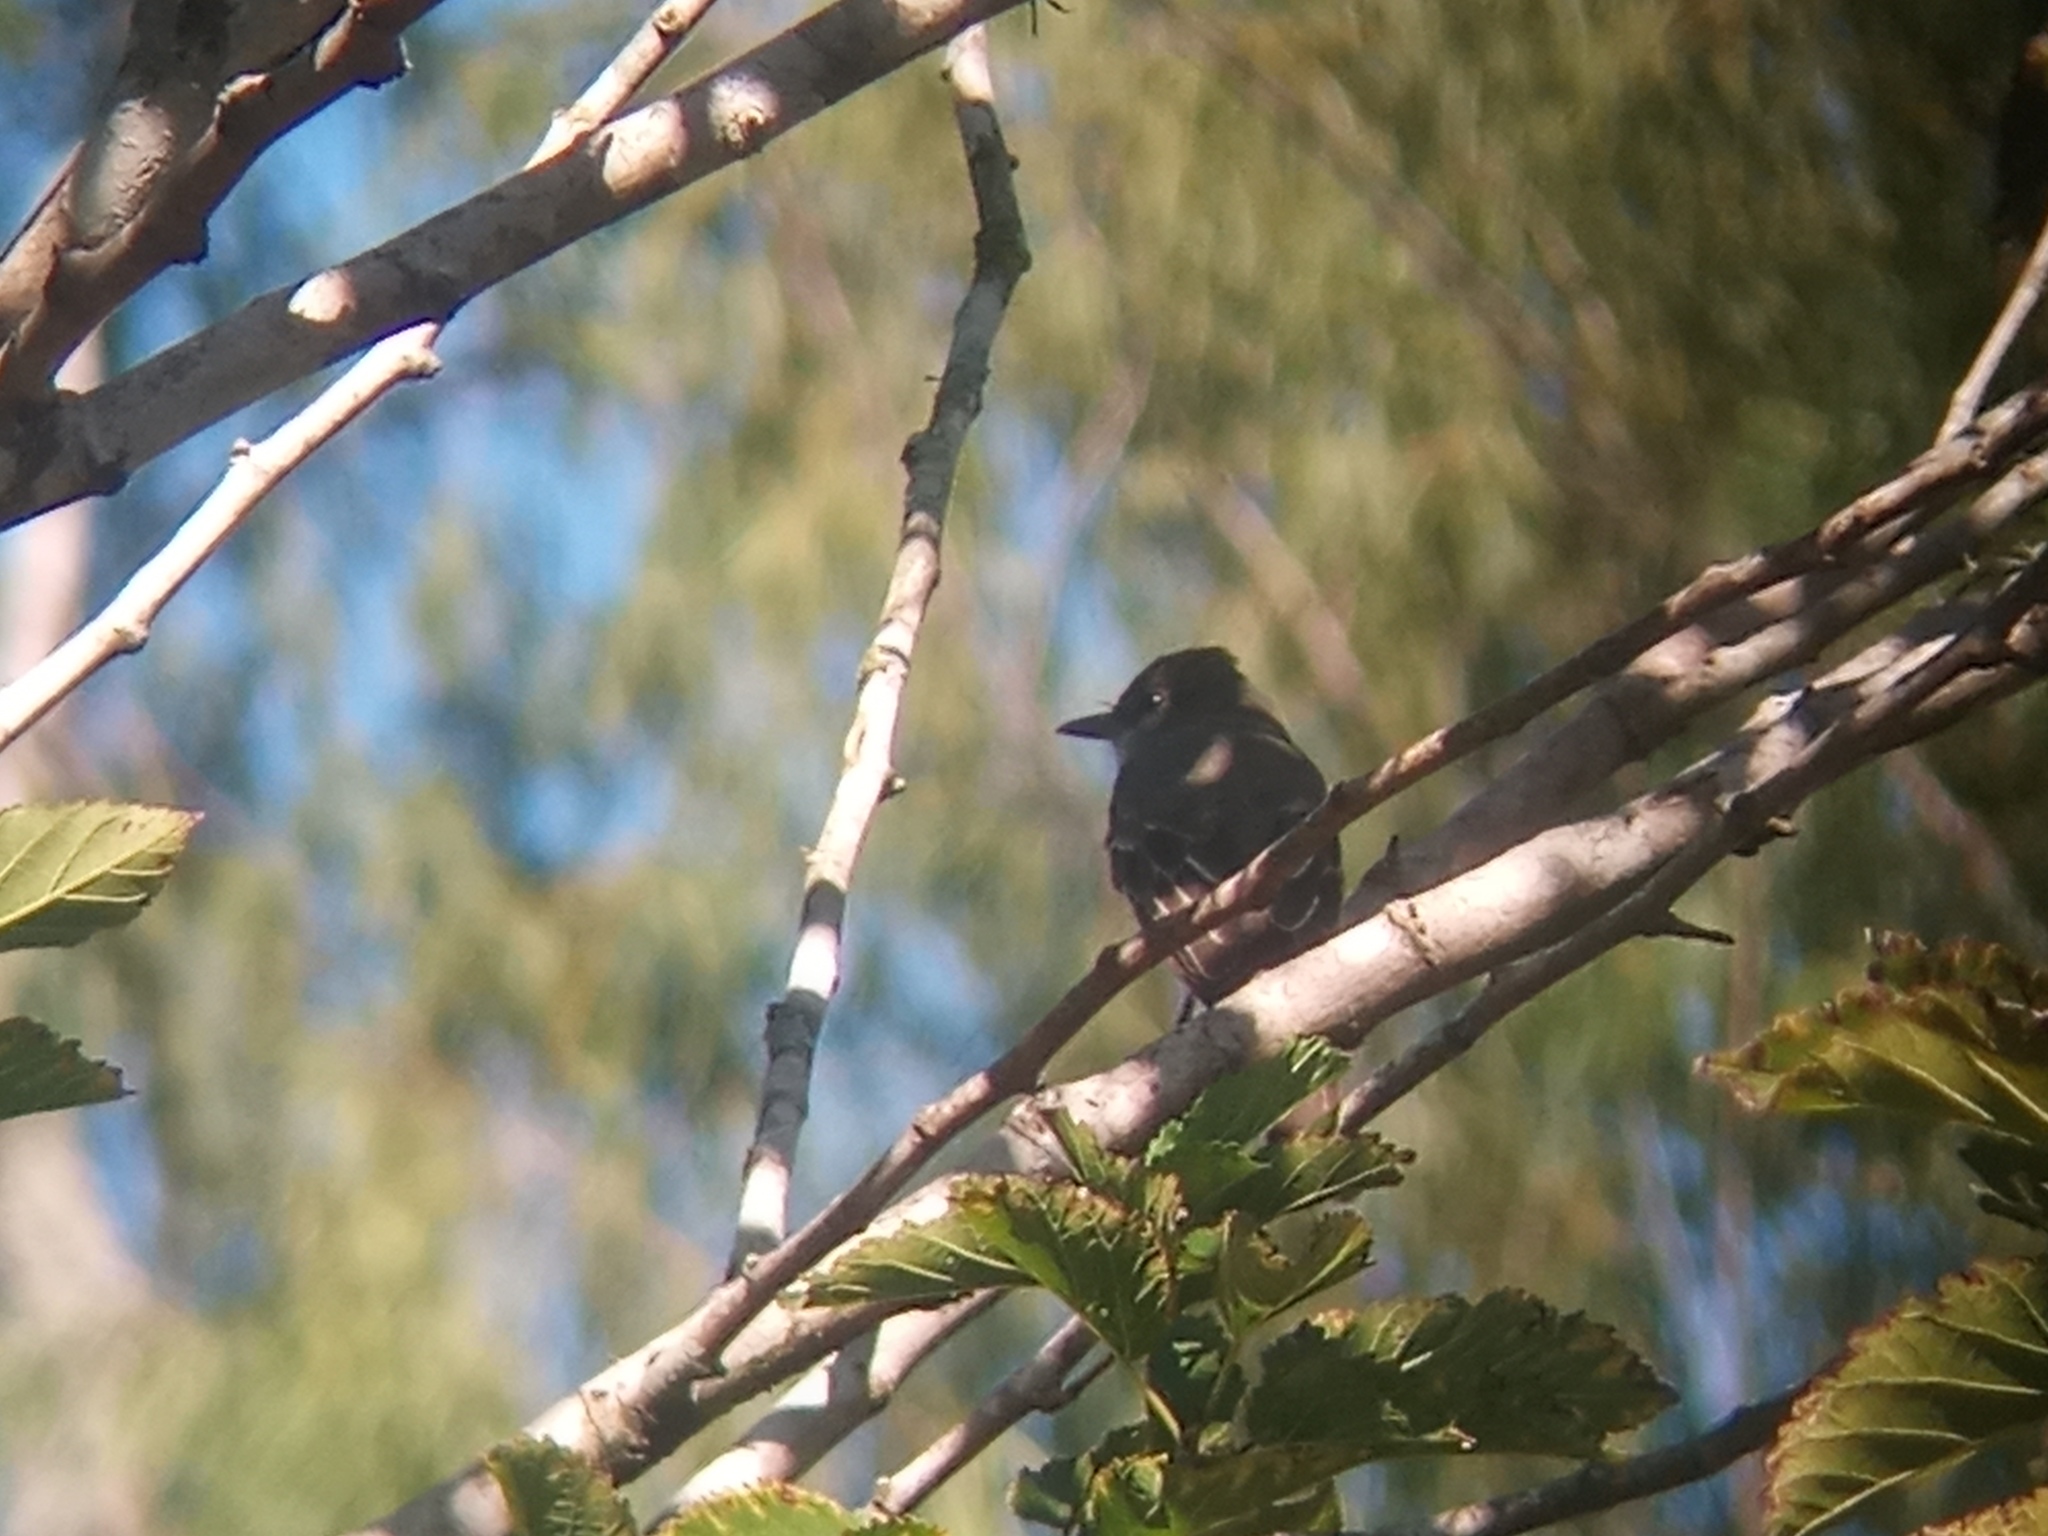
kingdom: Animalia
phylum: Chordata
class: Aves
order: Passeriformes
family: Tyrannidae
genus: Myiarchus
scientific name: Myiarchus swainsoni
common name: Swainson's flycatcher
